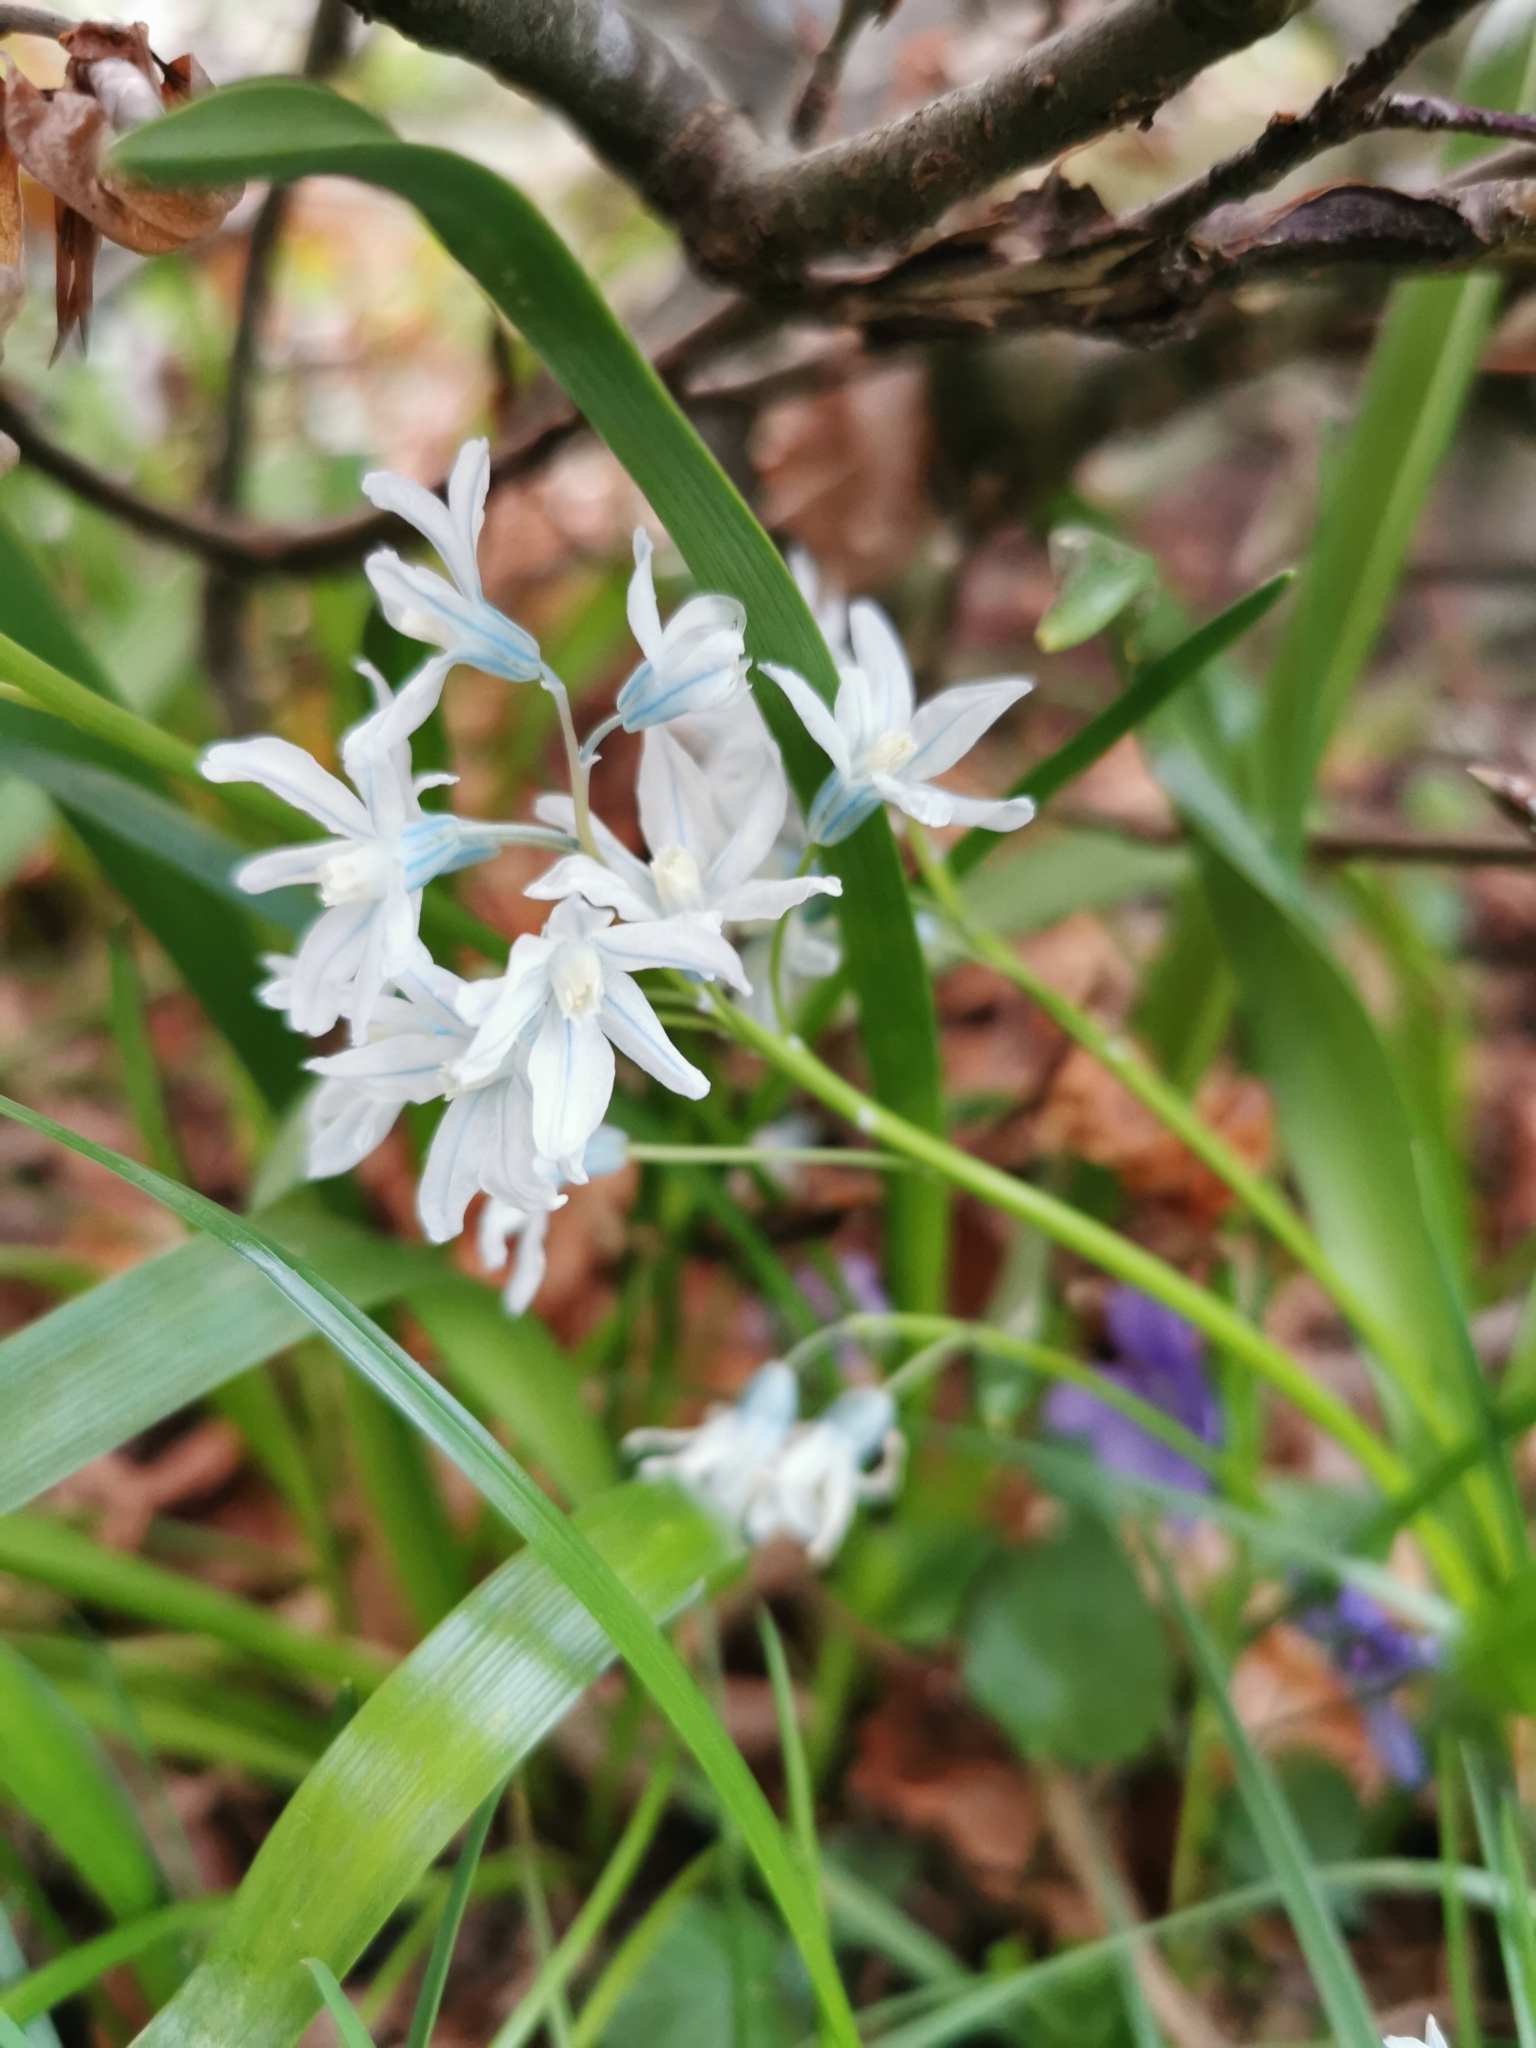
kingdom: Plantae
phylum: Tracheophyta
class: Liliopsida
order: Asparagales
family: Asparagaceae
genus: Puschkinia
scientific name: Puschkinia scilloides
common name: Striped squill
